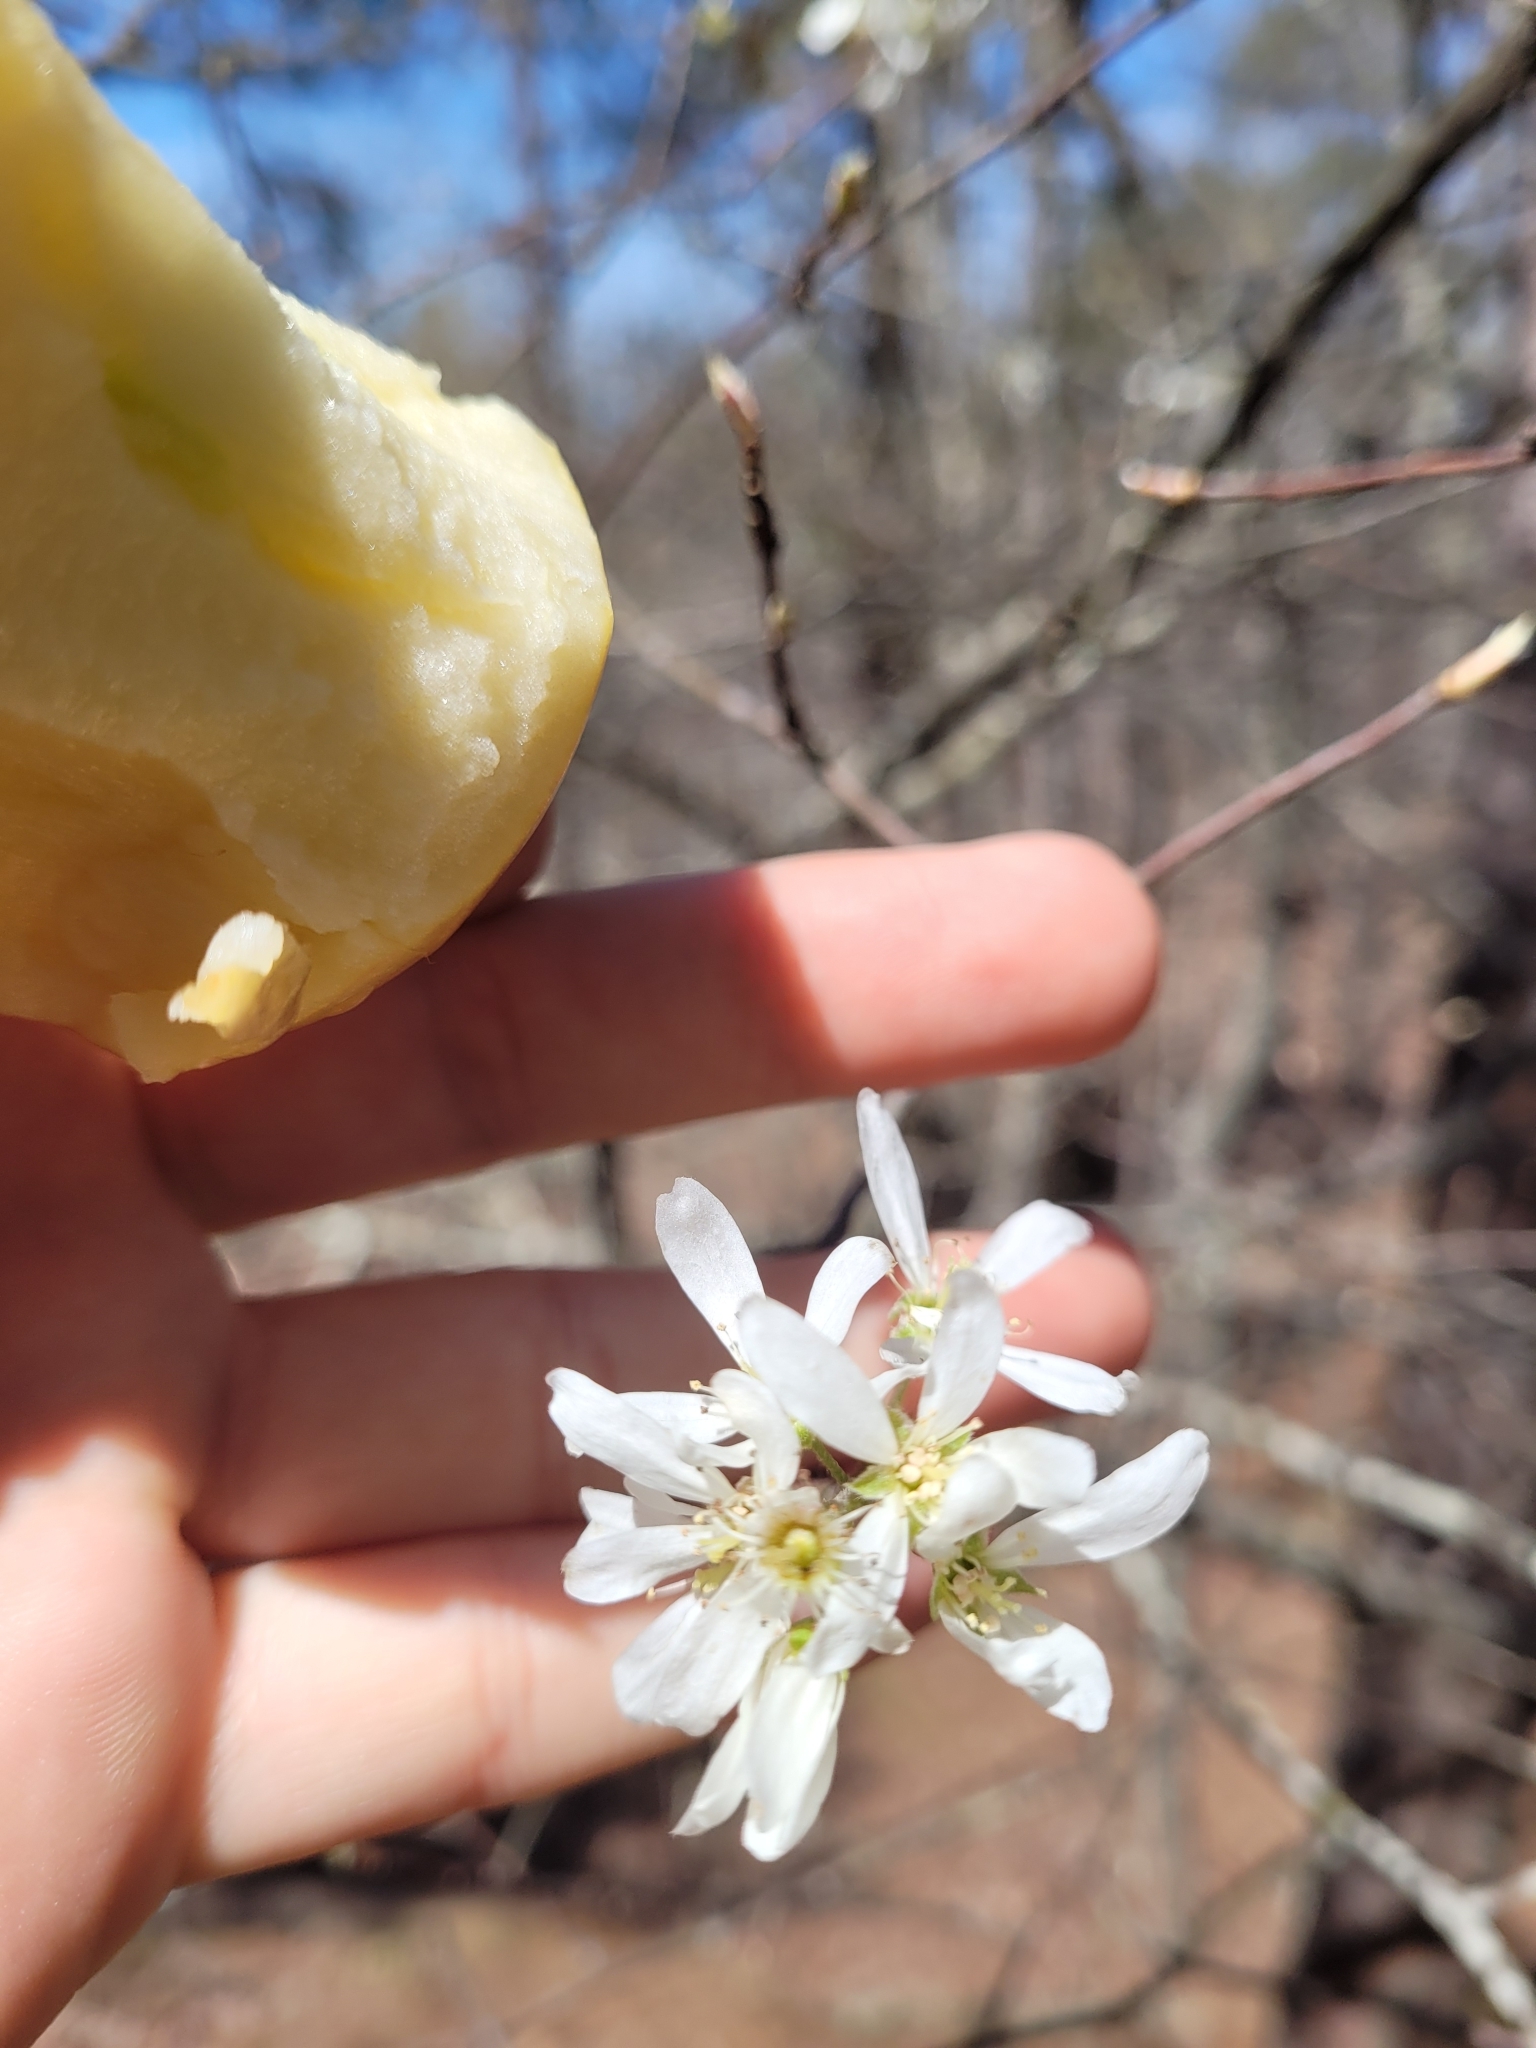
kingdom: Plantae
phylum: Tracheophyta
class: Magnoliopsida
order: Rosales
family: Rosaceae
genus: Amelanchier
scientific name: Amelanchier arborea
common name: Downy serviceberry
